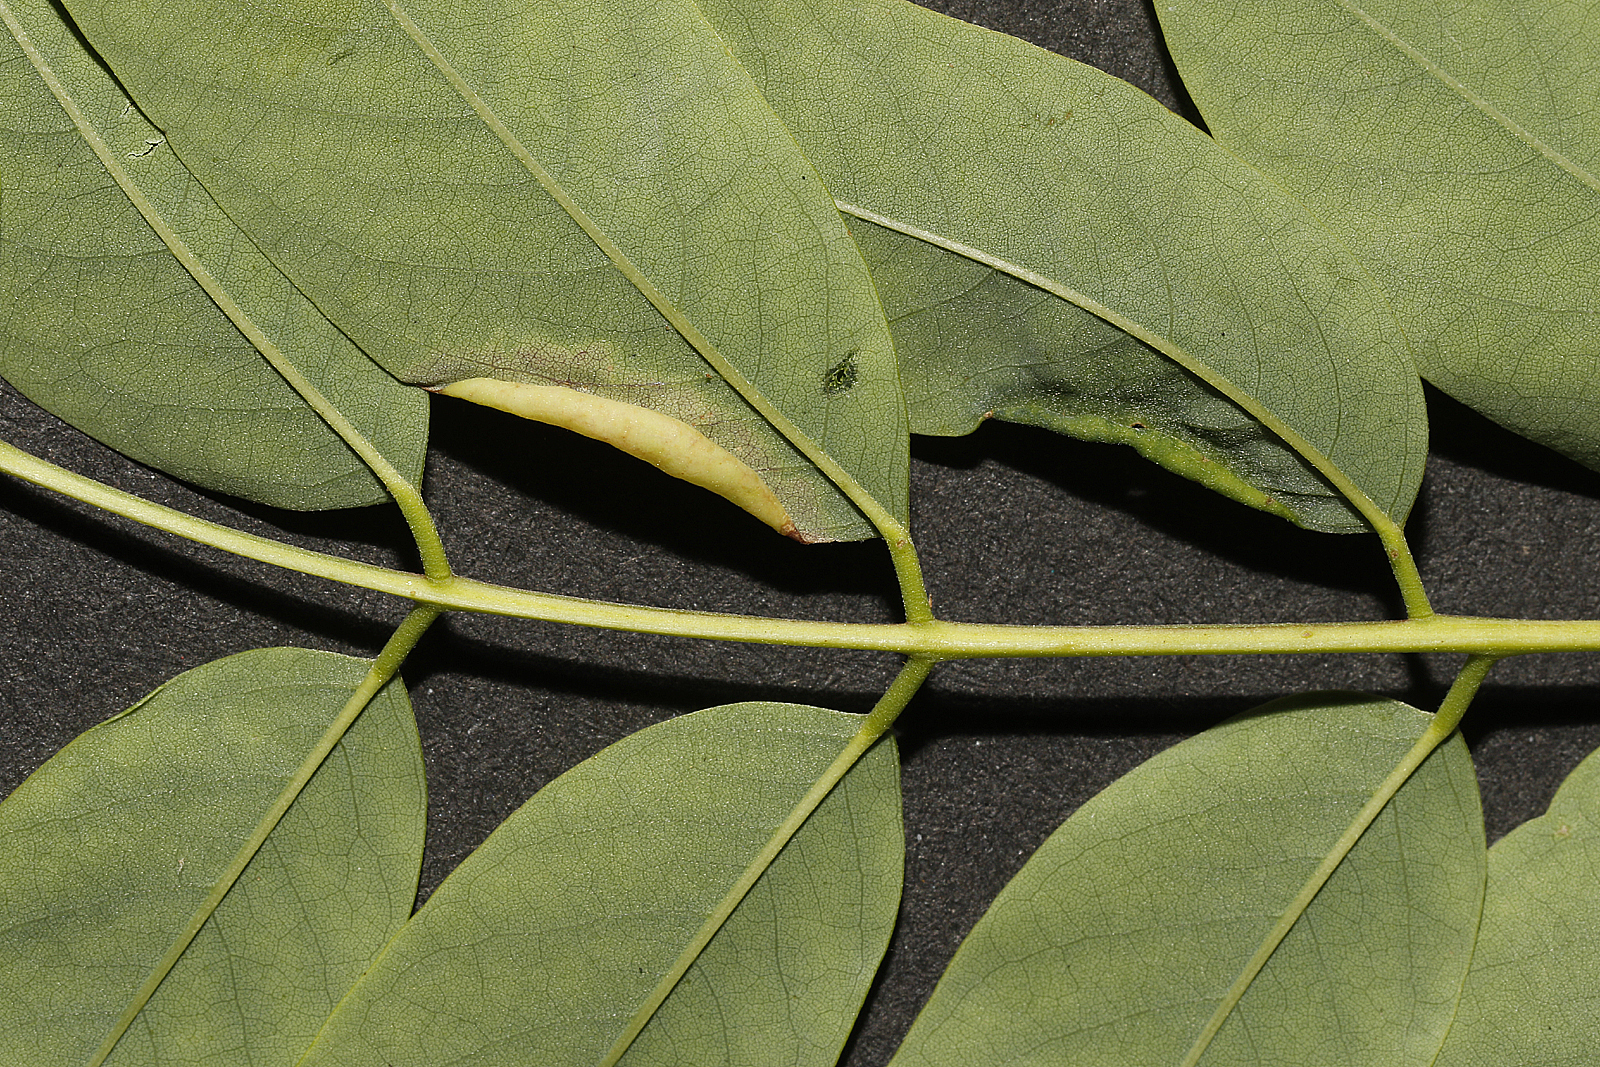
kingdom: Animalia
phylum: Arthropoda
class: Insecta
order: Diptera
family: Cecidomyiidae
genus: Obolodiplosis
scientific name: Obolodiplosis robiniae
